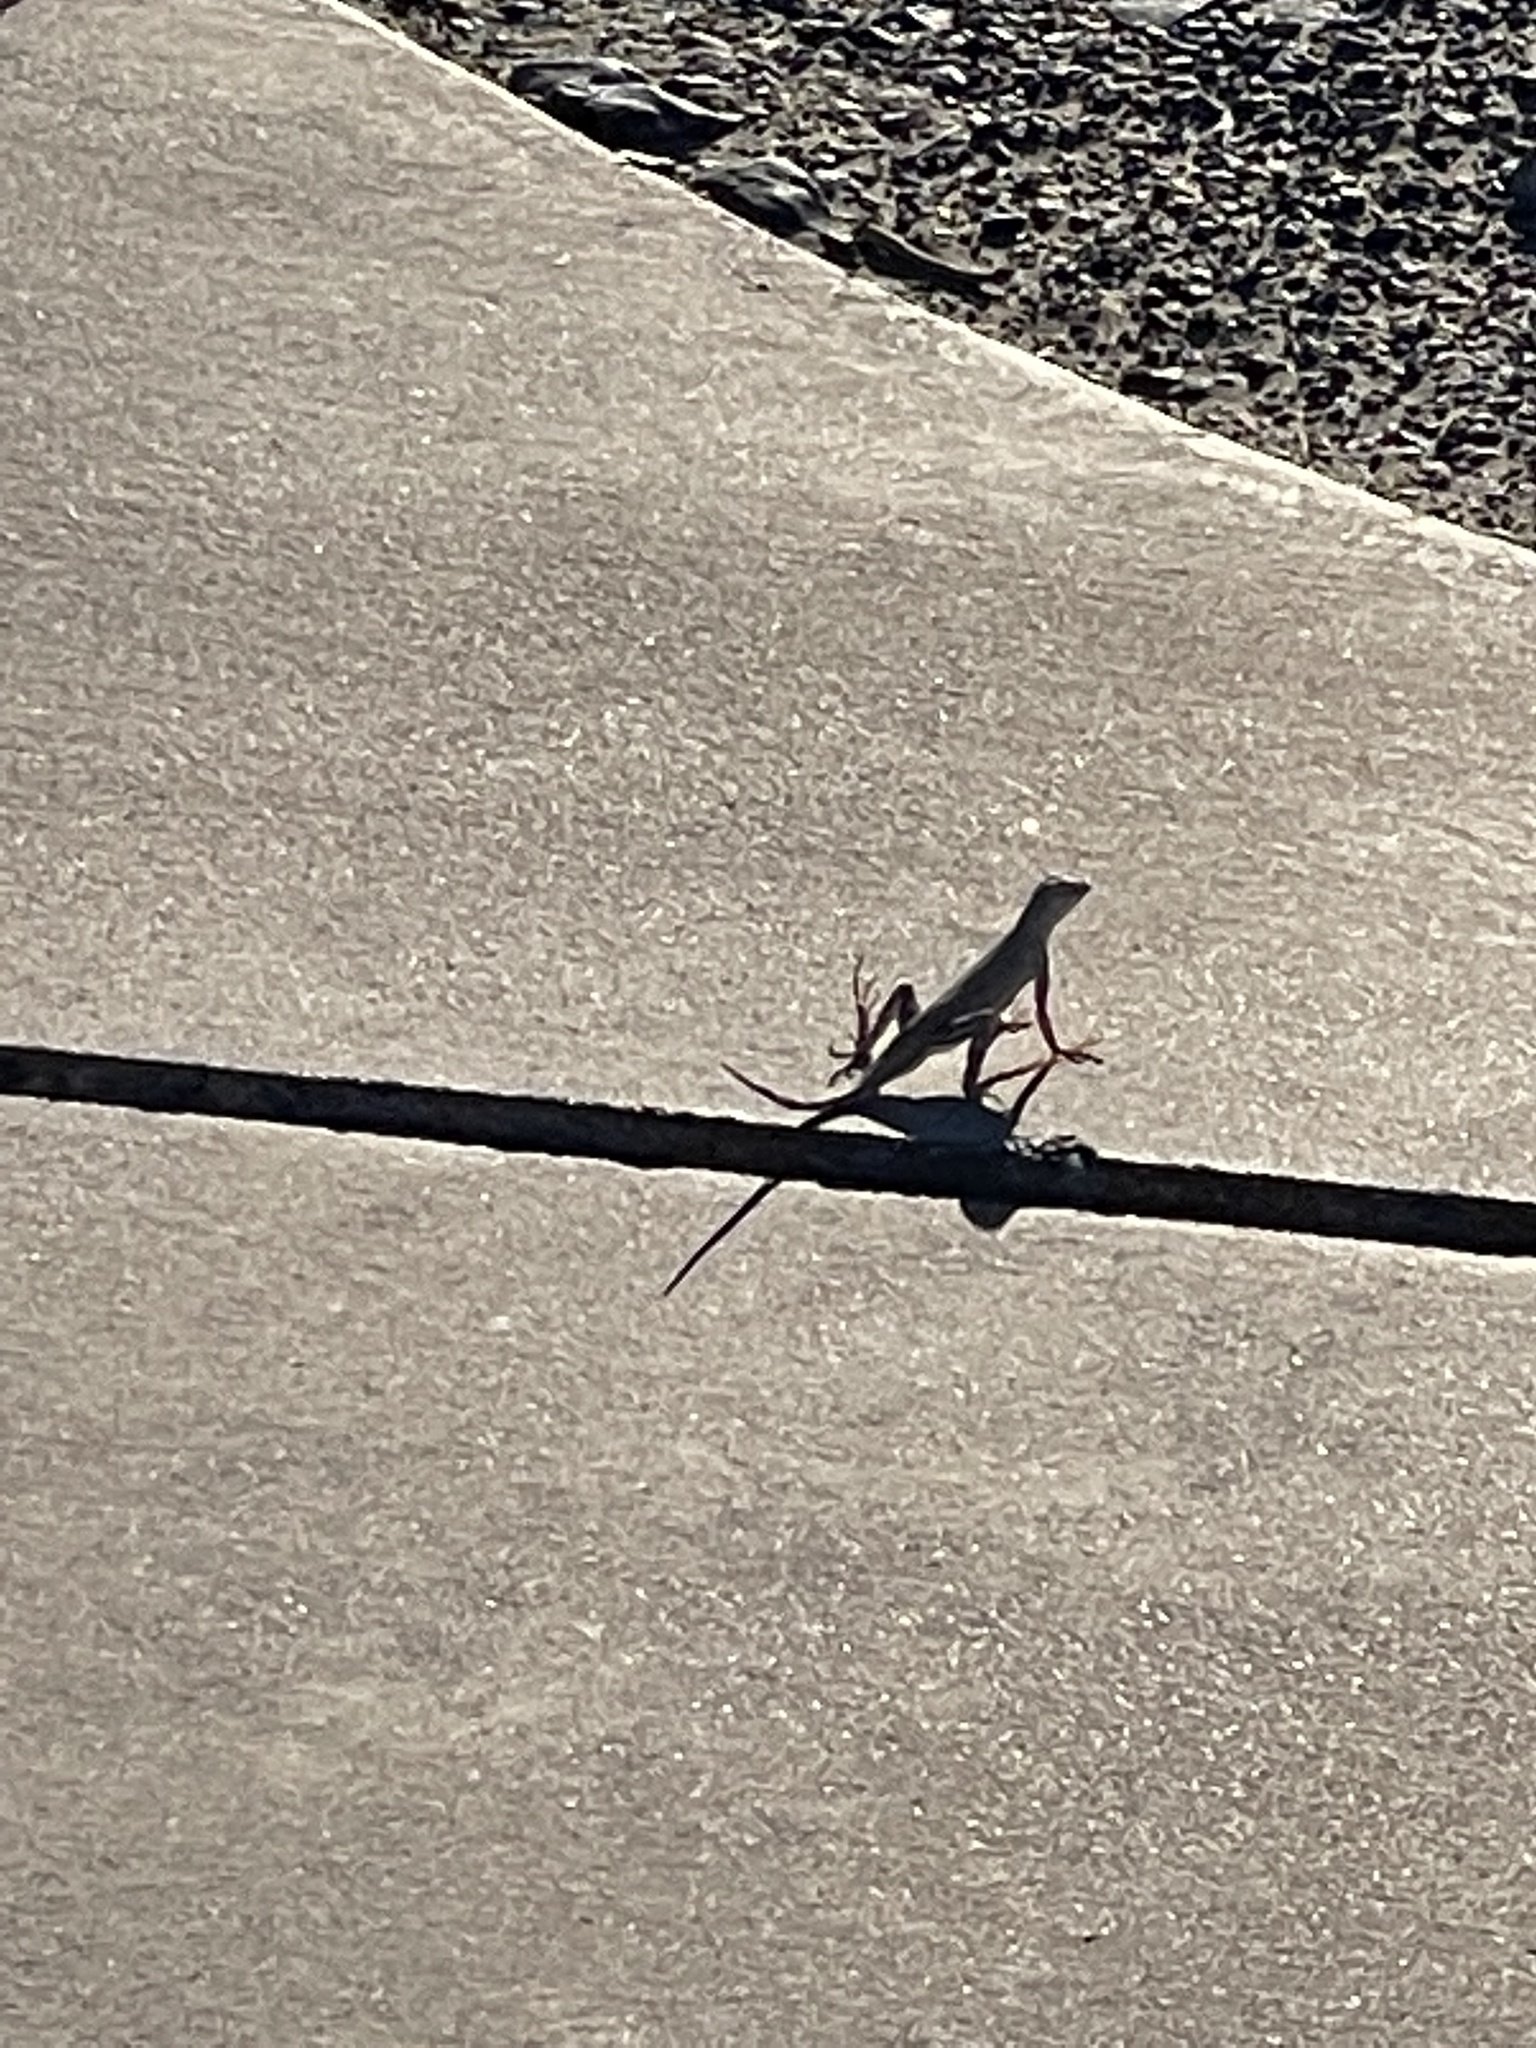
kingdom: Animalia
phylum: Chordata
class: Squamata
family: Phrynosomatidae
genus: Callisaurus
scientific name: Callisaurus draconoides
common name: Zebra-tailed lizard
